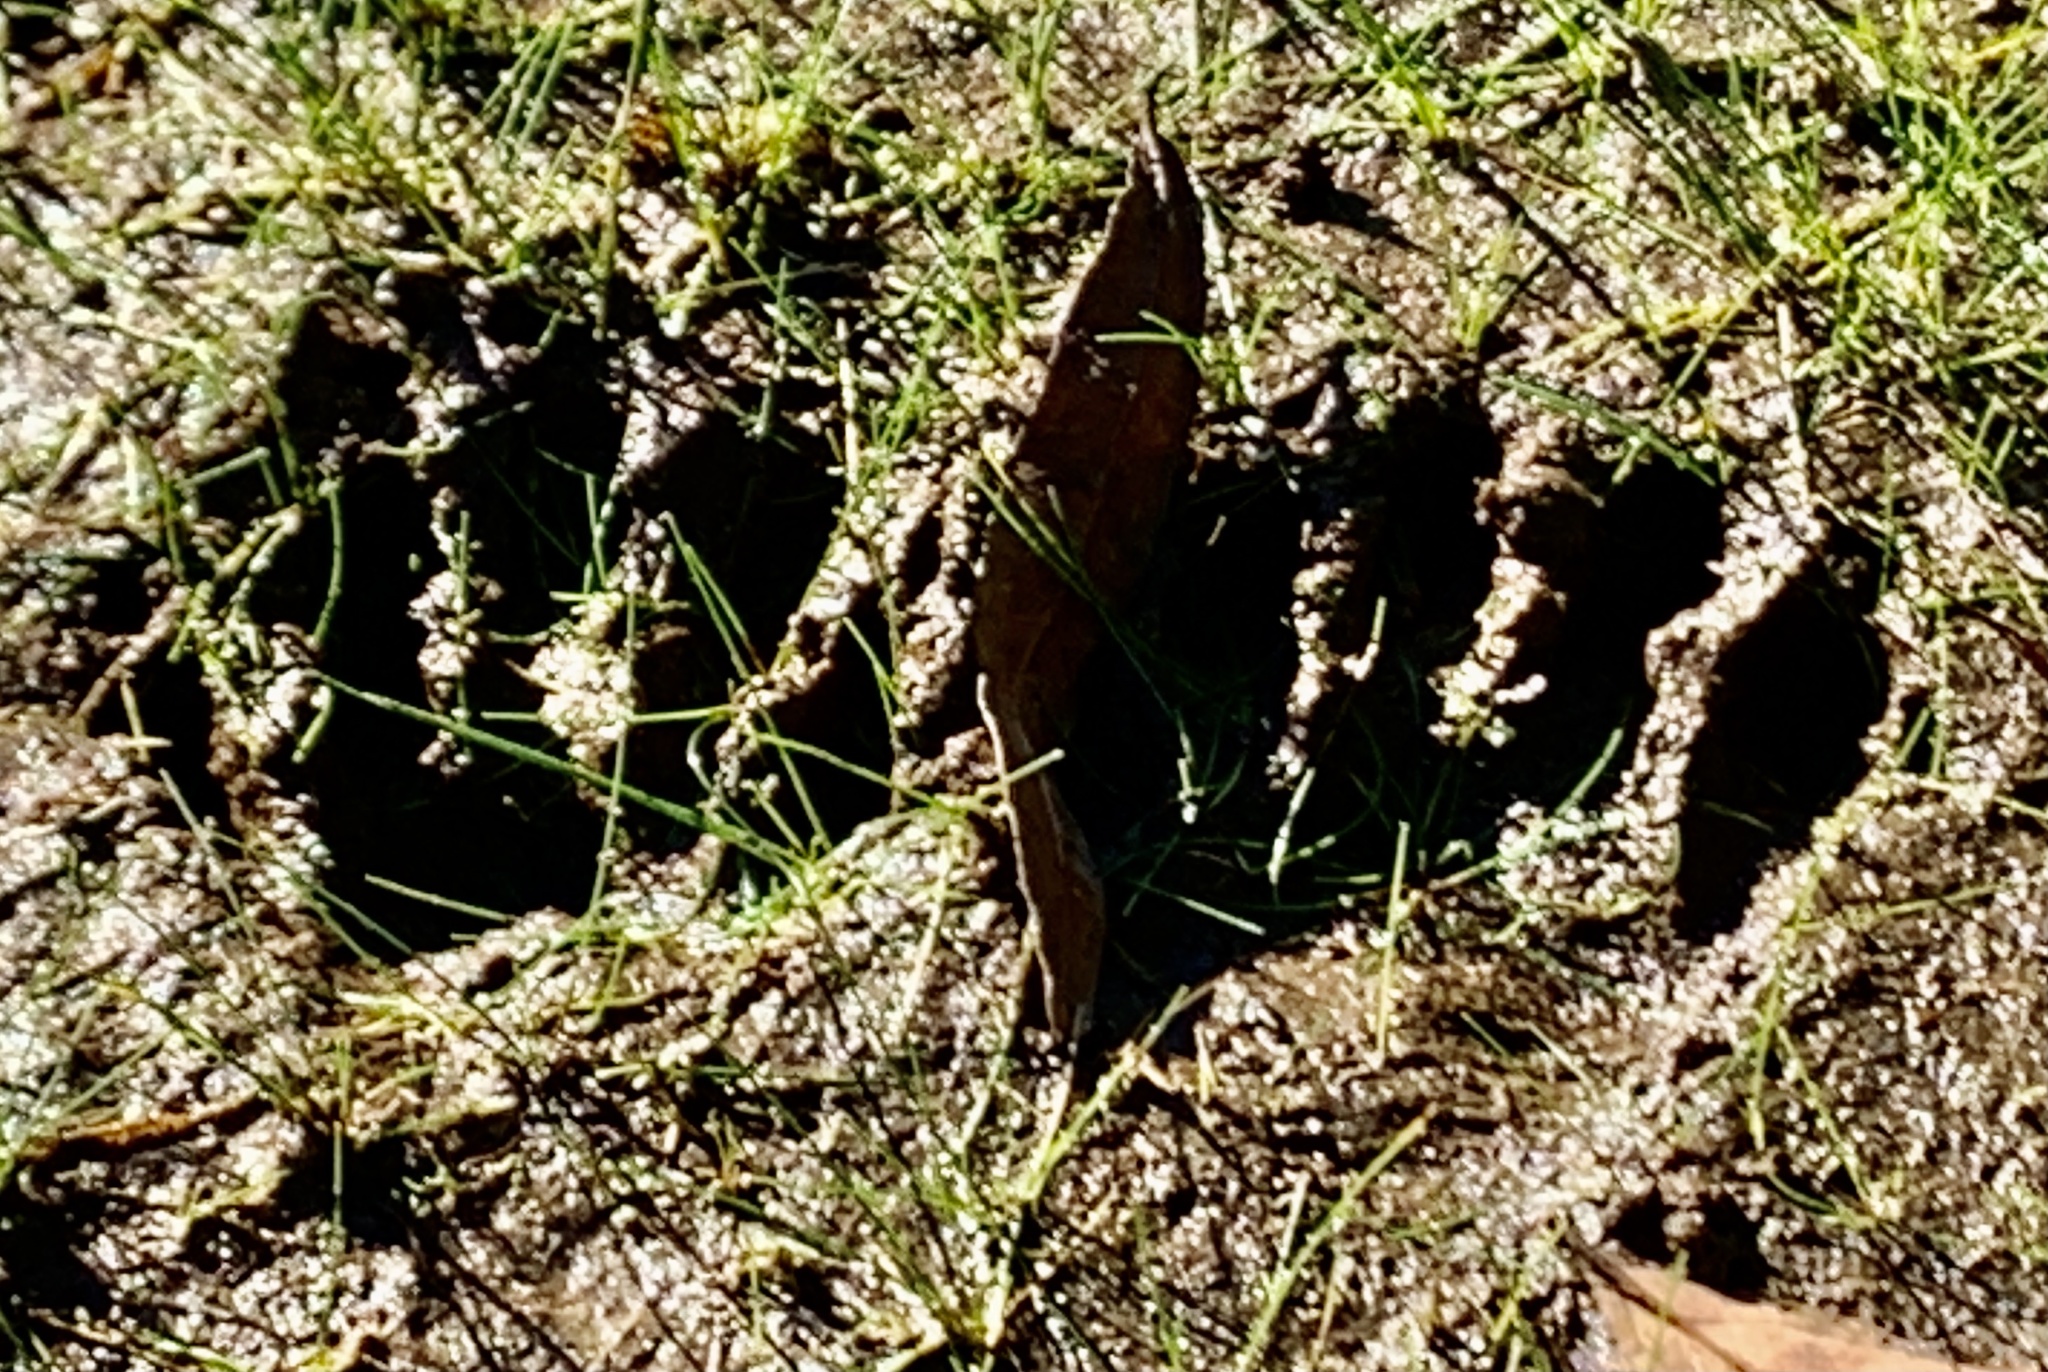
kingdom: Animalia
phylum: Chordata
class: Mammalia
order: Carnivora
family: Procyonidae
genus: Procyon
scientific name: Procyon lotor
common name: Raccoon
